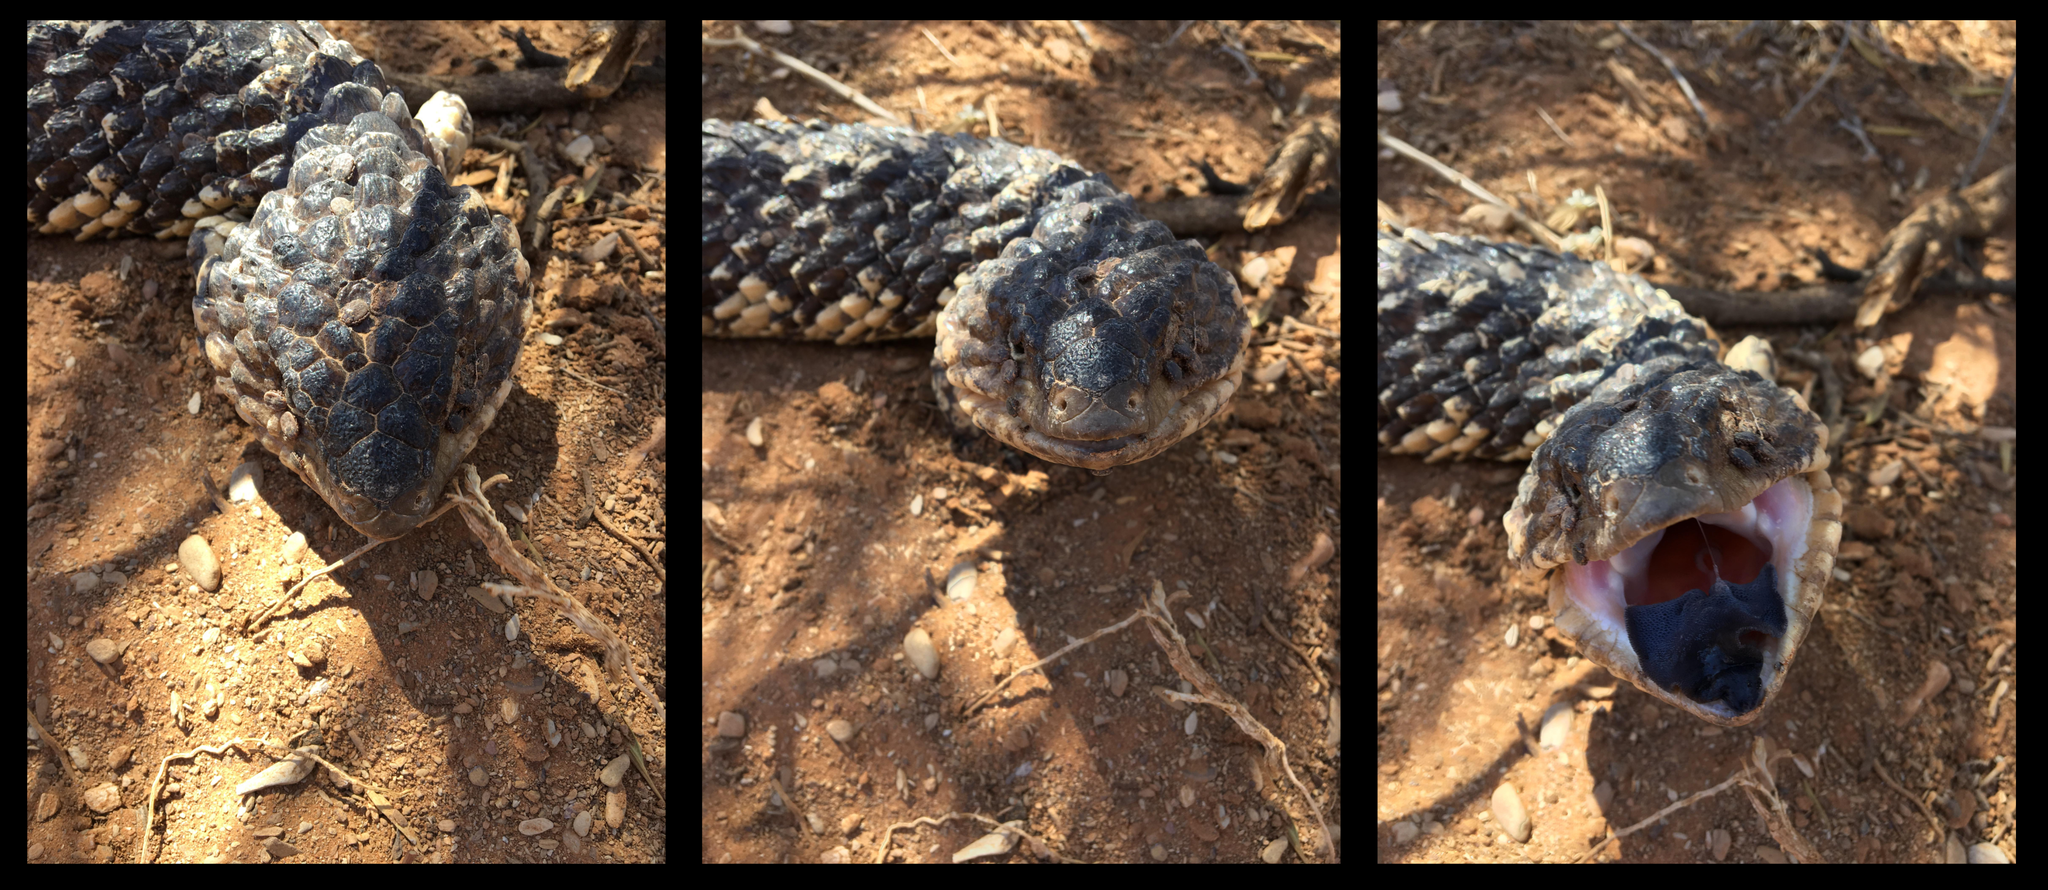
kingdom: Animalia
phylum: Chordata
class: Squamata
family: Scincidae
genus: Tiliqua
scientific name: Tiliqua rugosa
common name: Pinecone lizard
